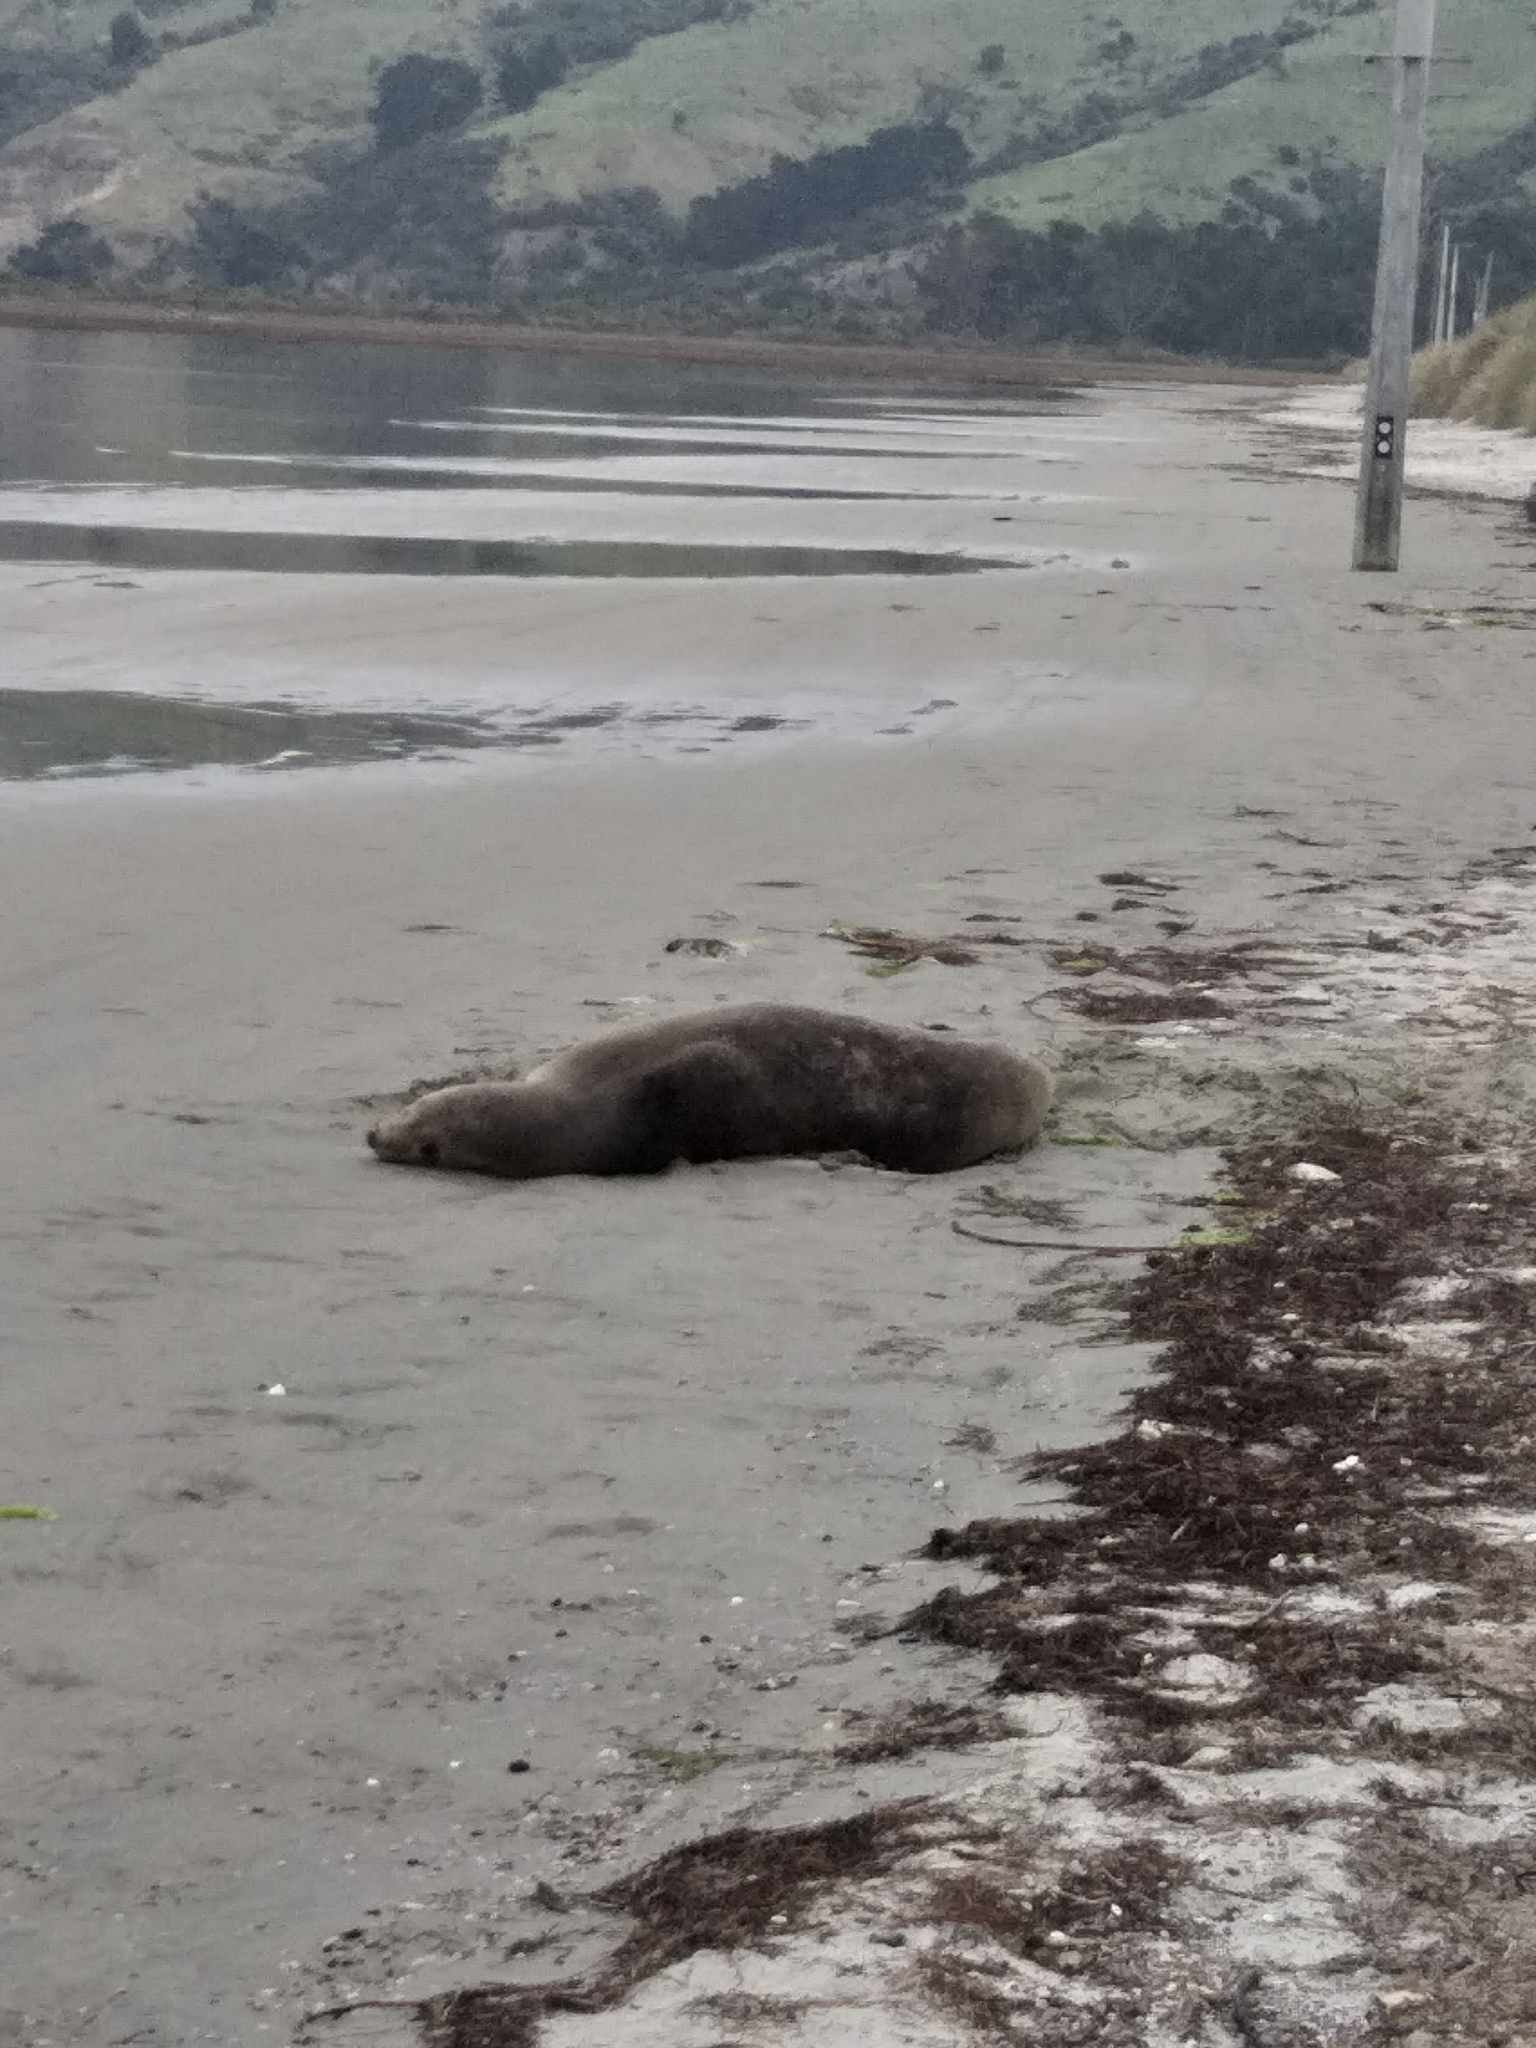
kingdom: Animalia
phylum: Chordata
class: Mammalia
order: Carnivora
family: Otariidae
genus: Phocarctos
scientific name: Phocarctos hookeri
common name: New zealand sea lion
